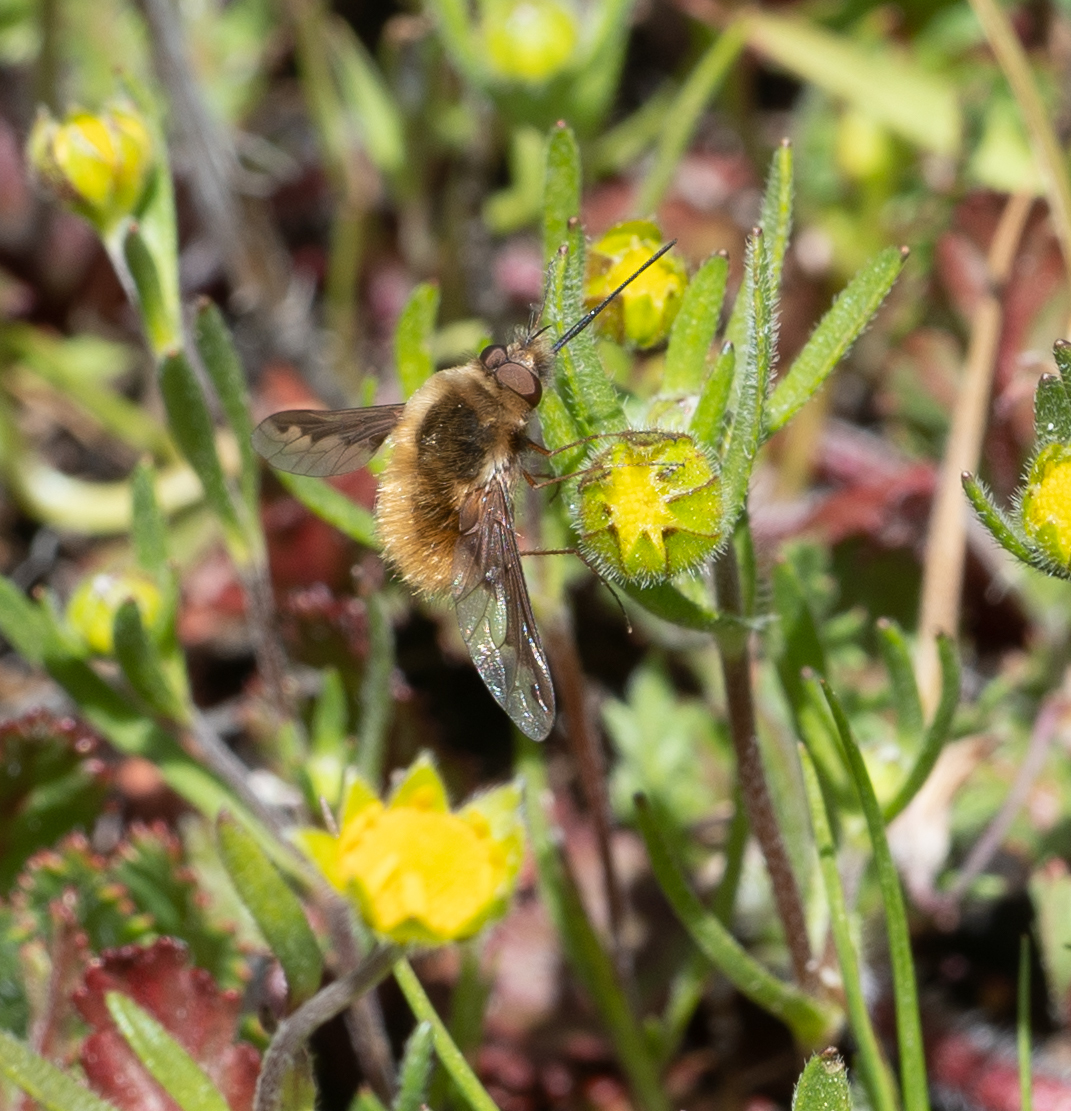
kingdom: Animalia
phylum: Arthropoda
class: Insecta
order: Diptera
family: Bombyliidae
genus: Bombylius
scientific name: Bombylius major
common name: Bee fly
